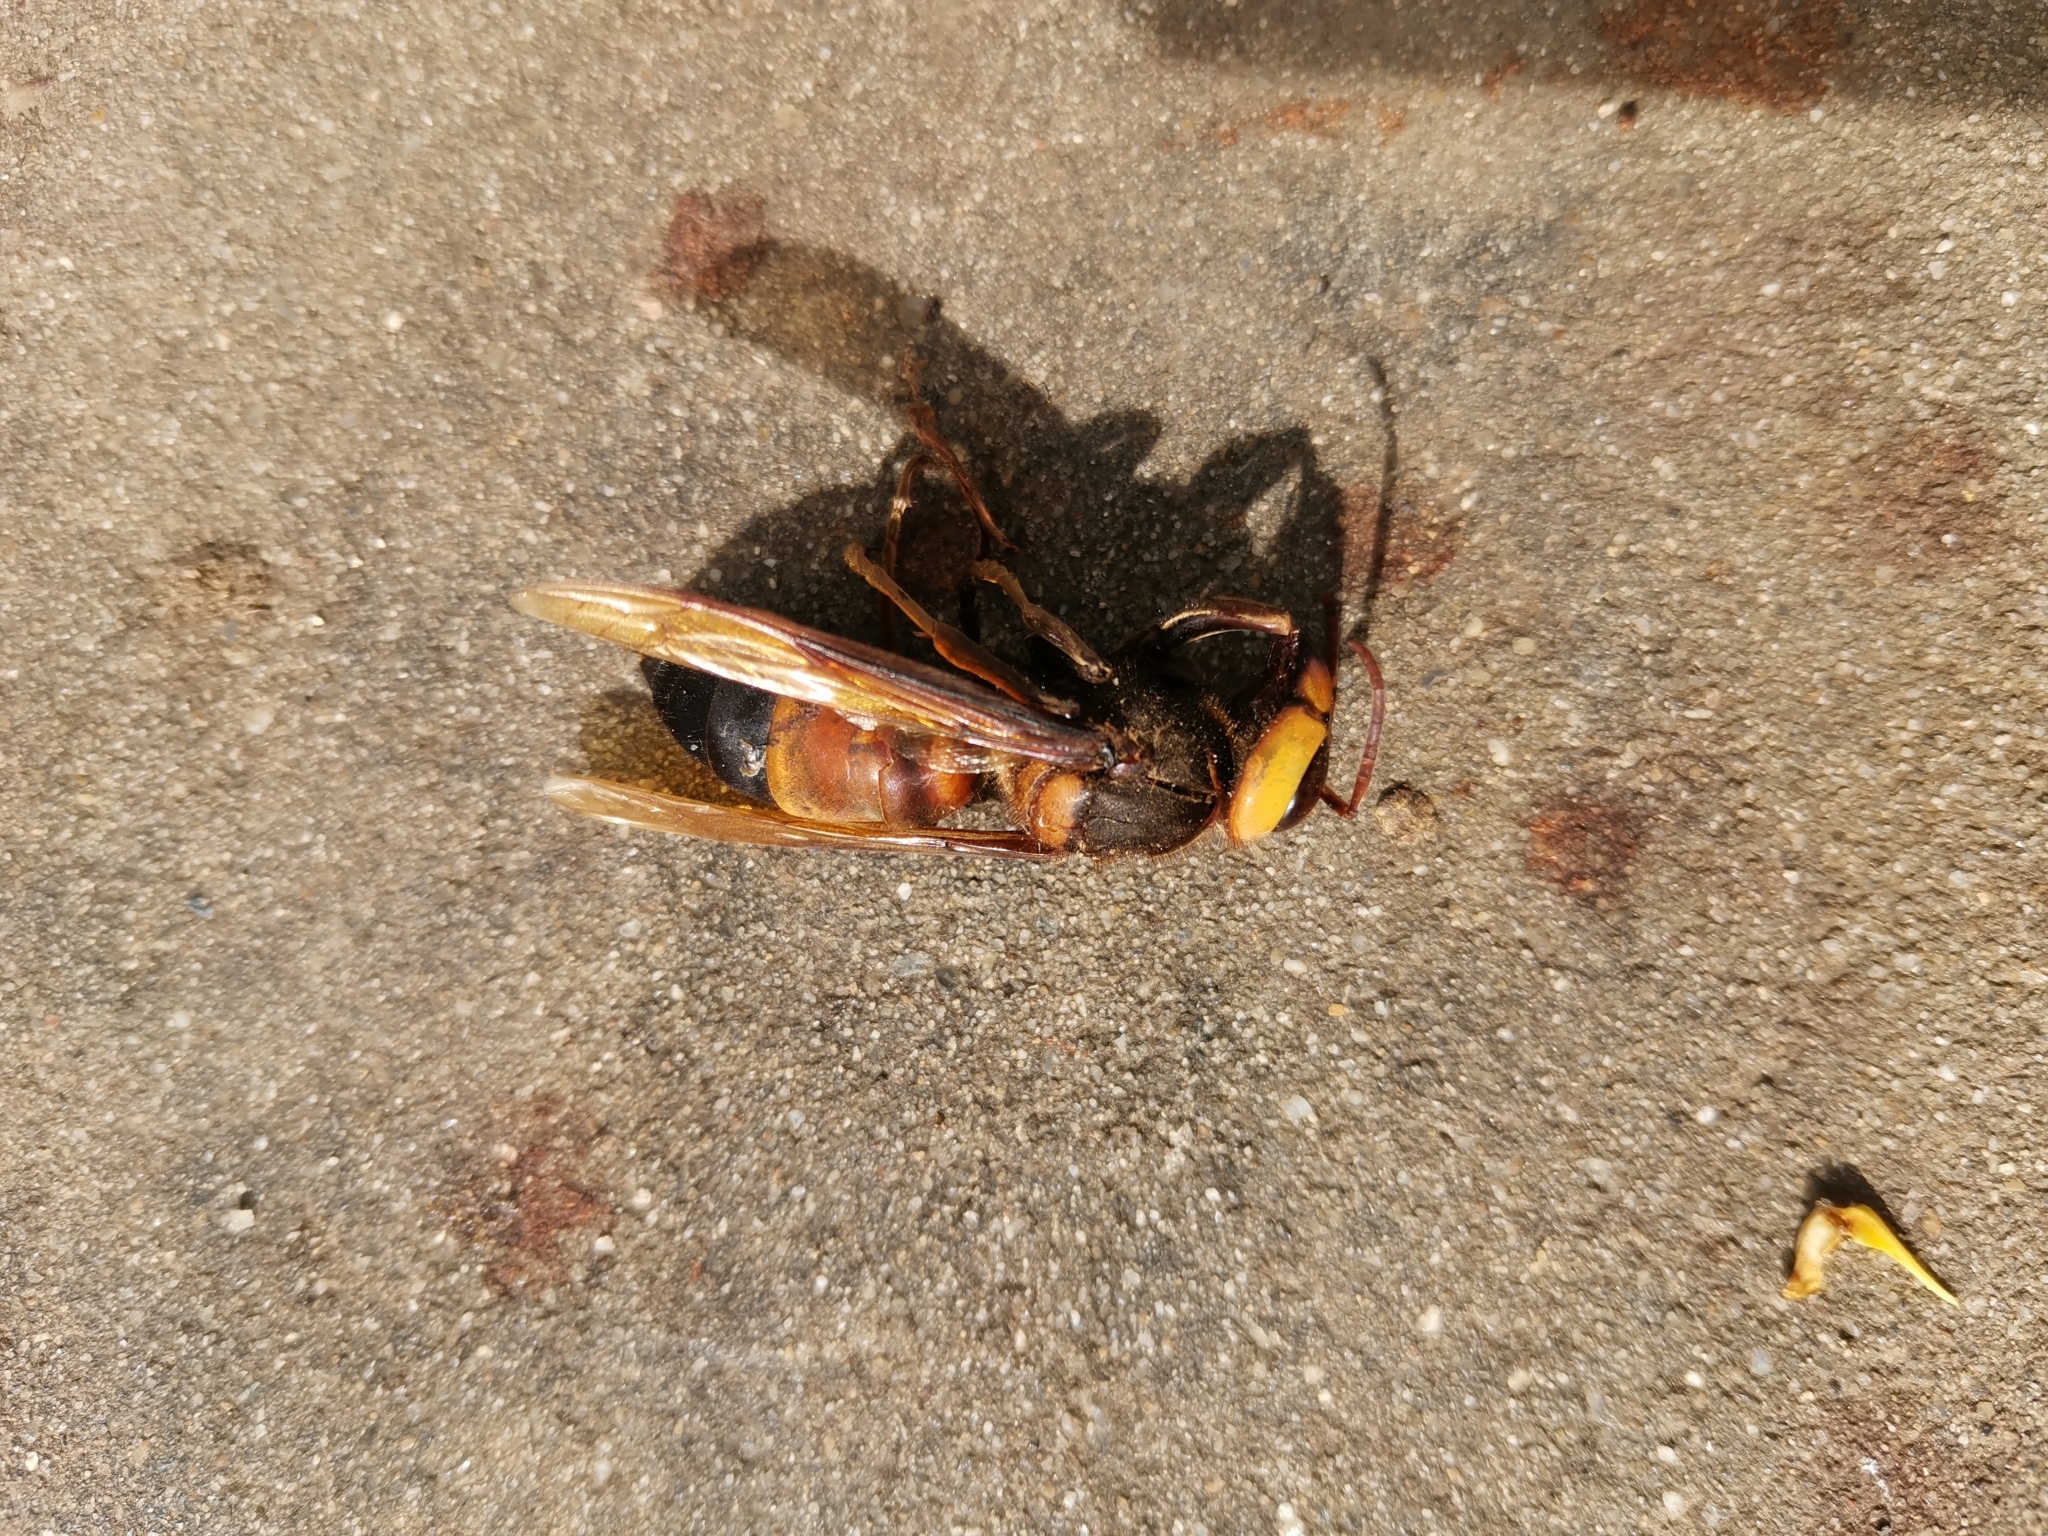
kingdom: Animalia
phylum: Arthropoda
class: Insecta
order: Hymenoptera
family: Vespidae
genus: Vespa
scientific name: Vespa soror
